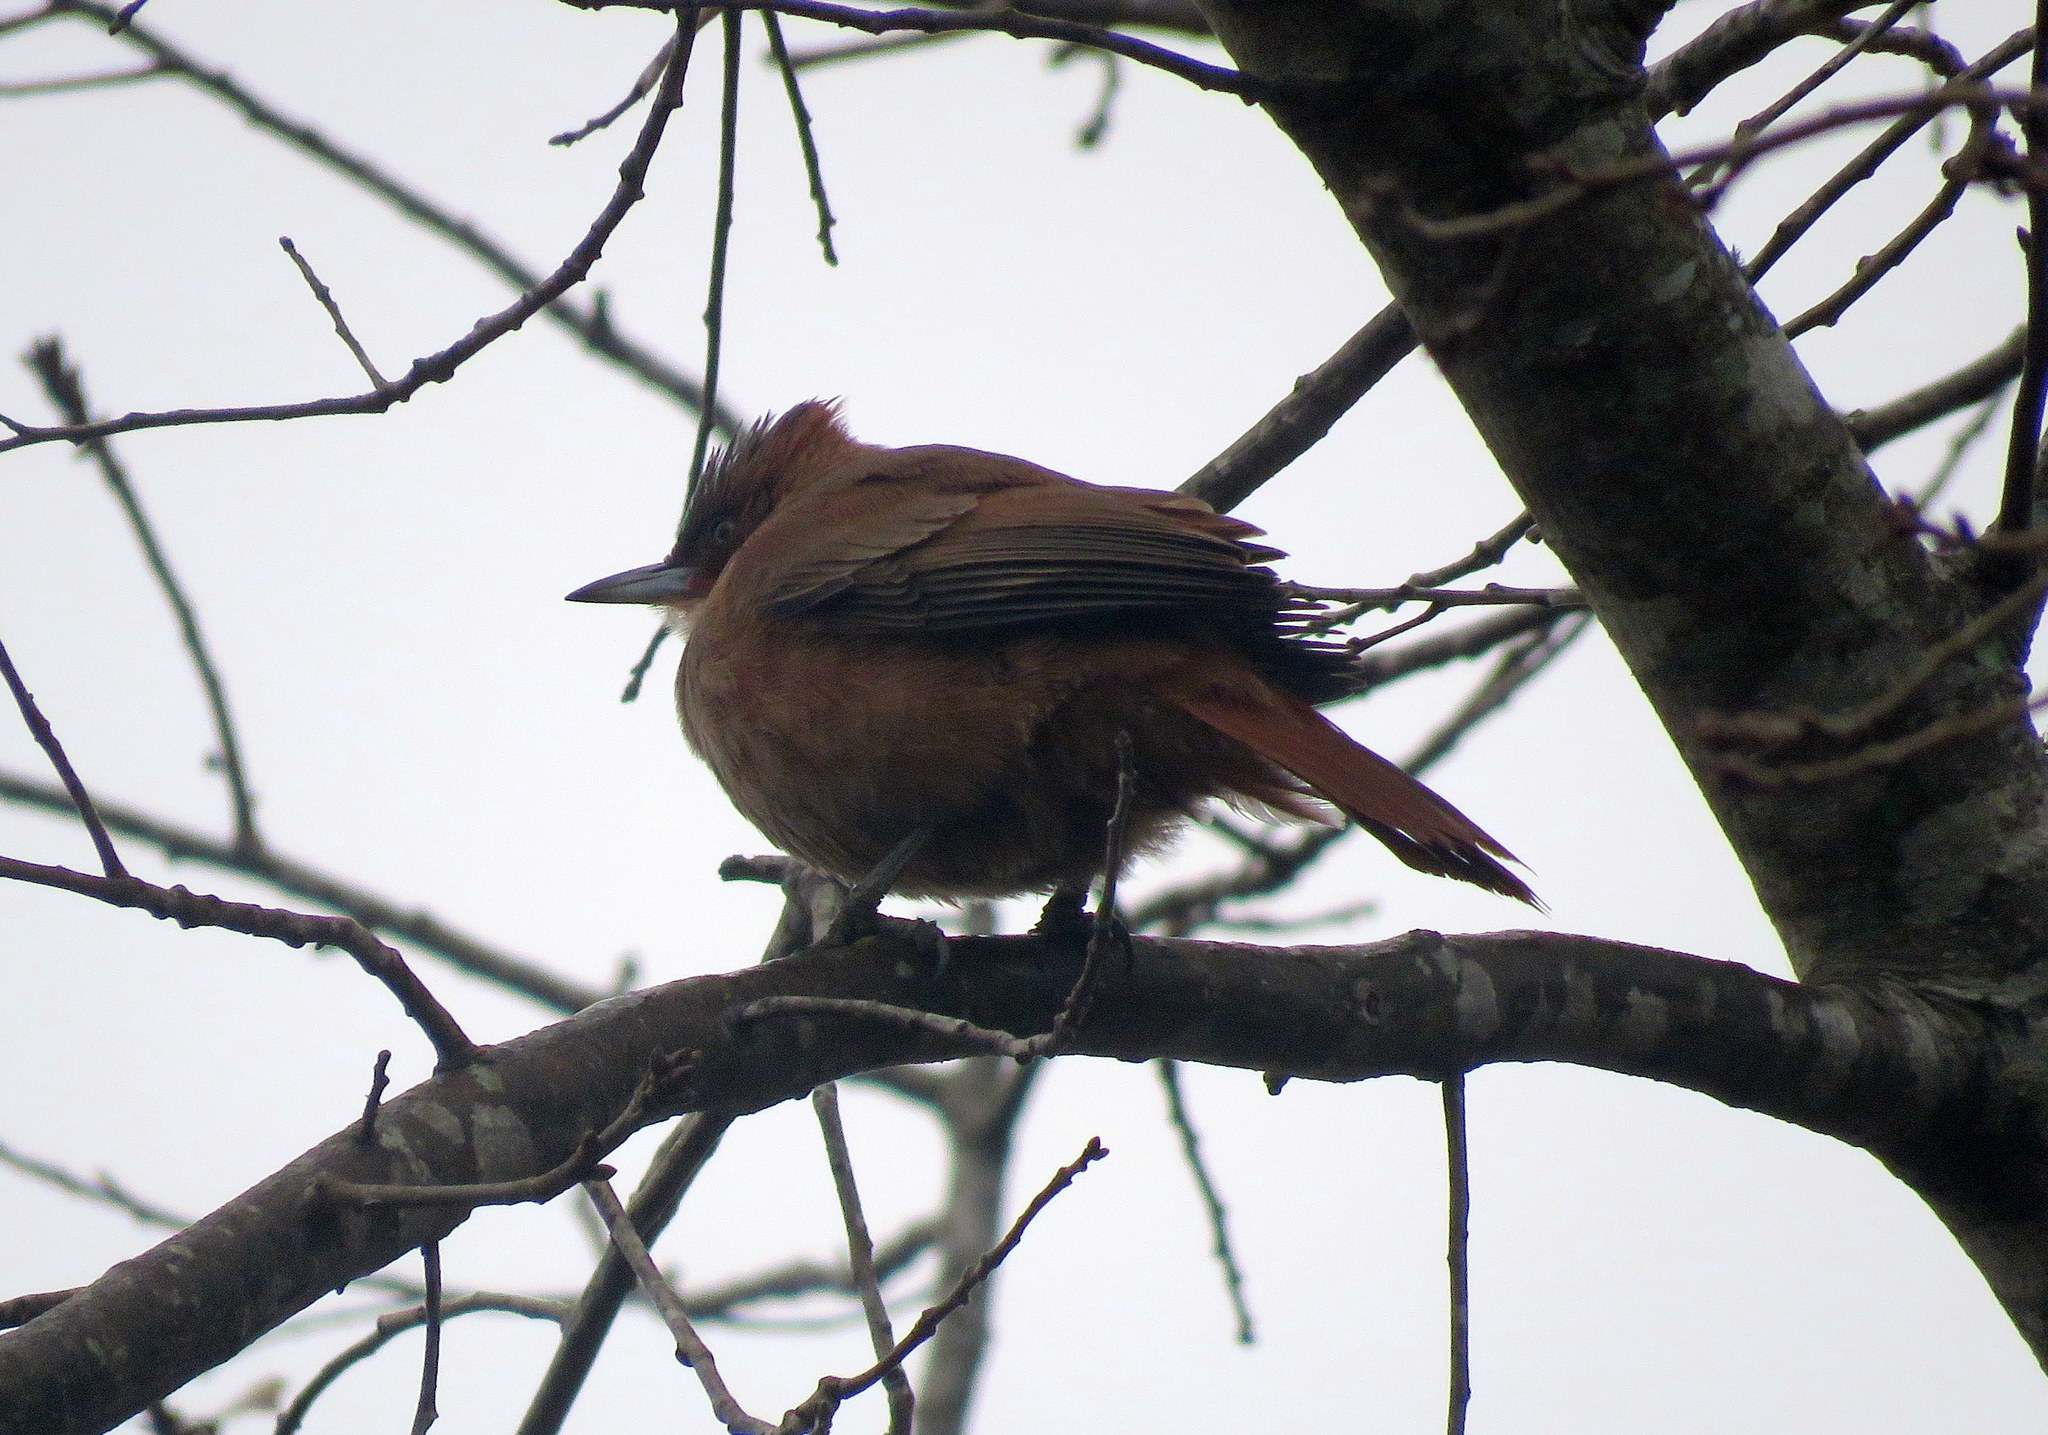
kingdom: Animalia
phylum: Chordata
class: Aves
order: Passeriformes
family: Furnariidae
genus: Pseudoseisura
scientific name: Pseudoseisura lophotes
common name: Brown cacholote
